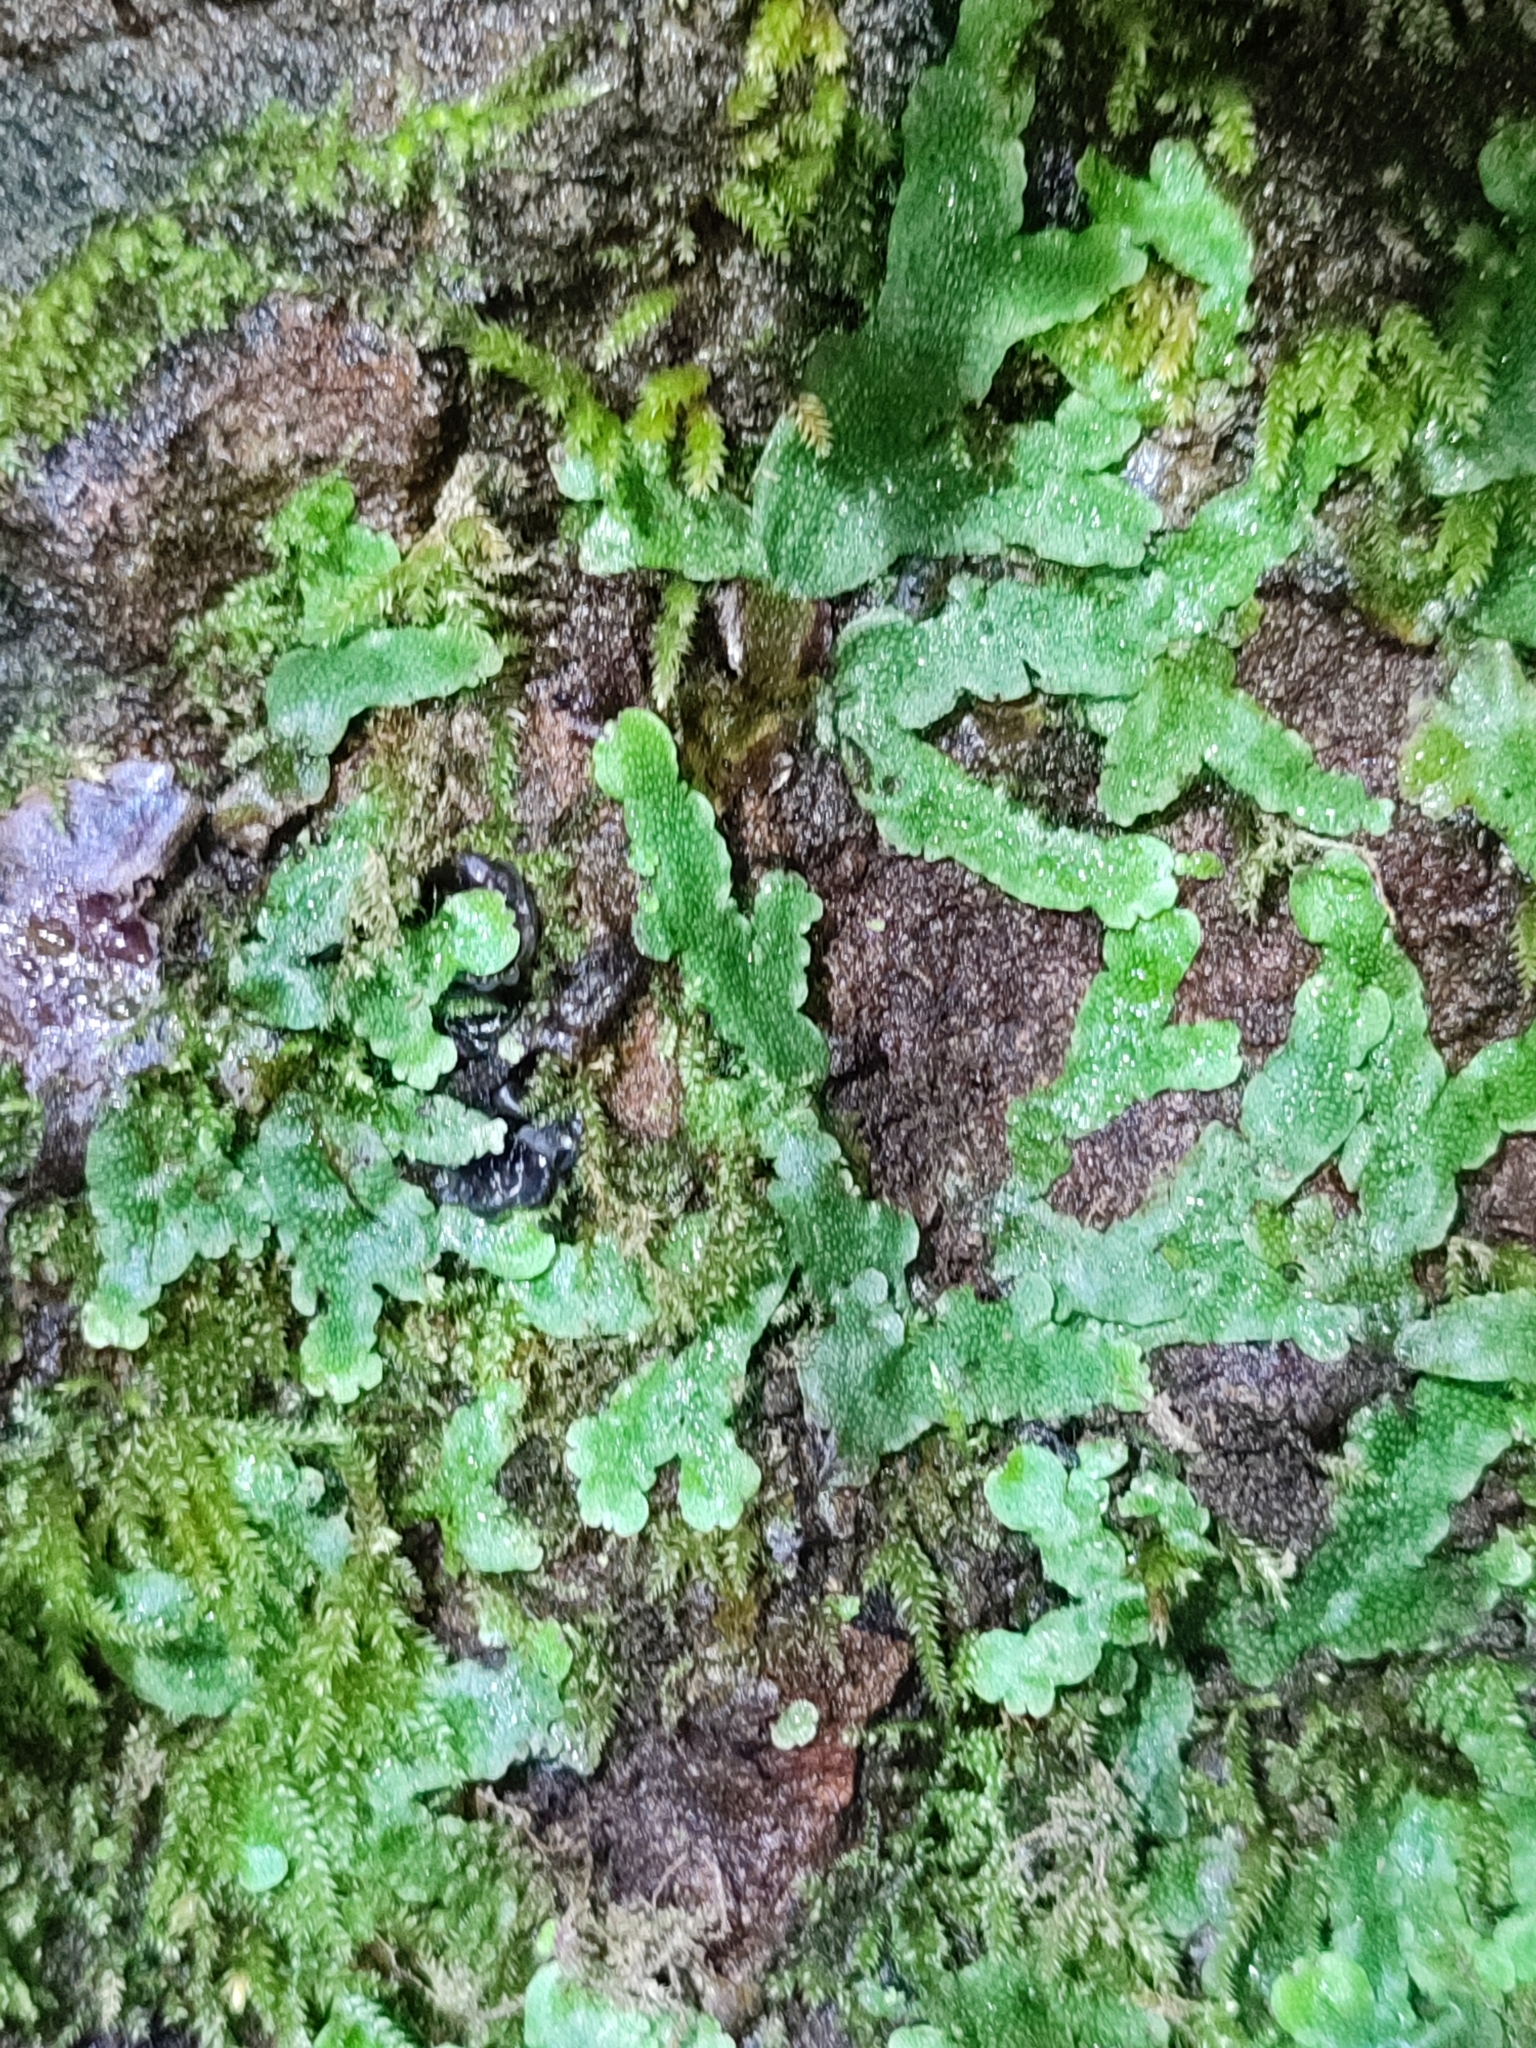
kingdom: Plantae
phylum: Marchantiophyta
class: Marchantiopsida
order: Marchantiales
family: Conocephalaceae
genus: Conocephalum
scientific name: Conocephalum salebrosum
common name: Cat-tongue liverwort
